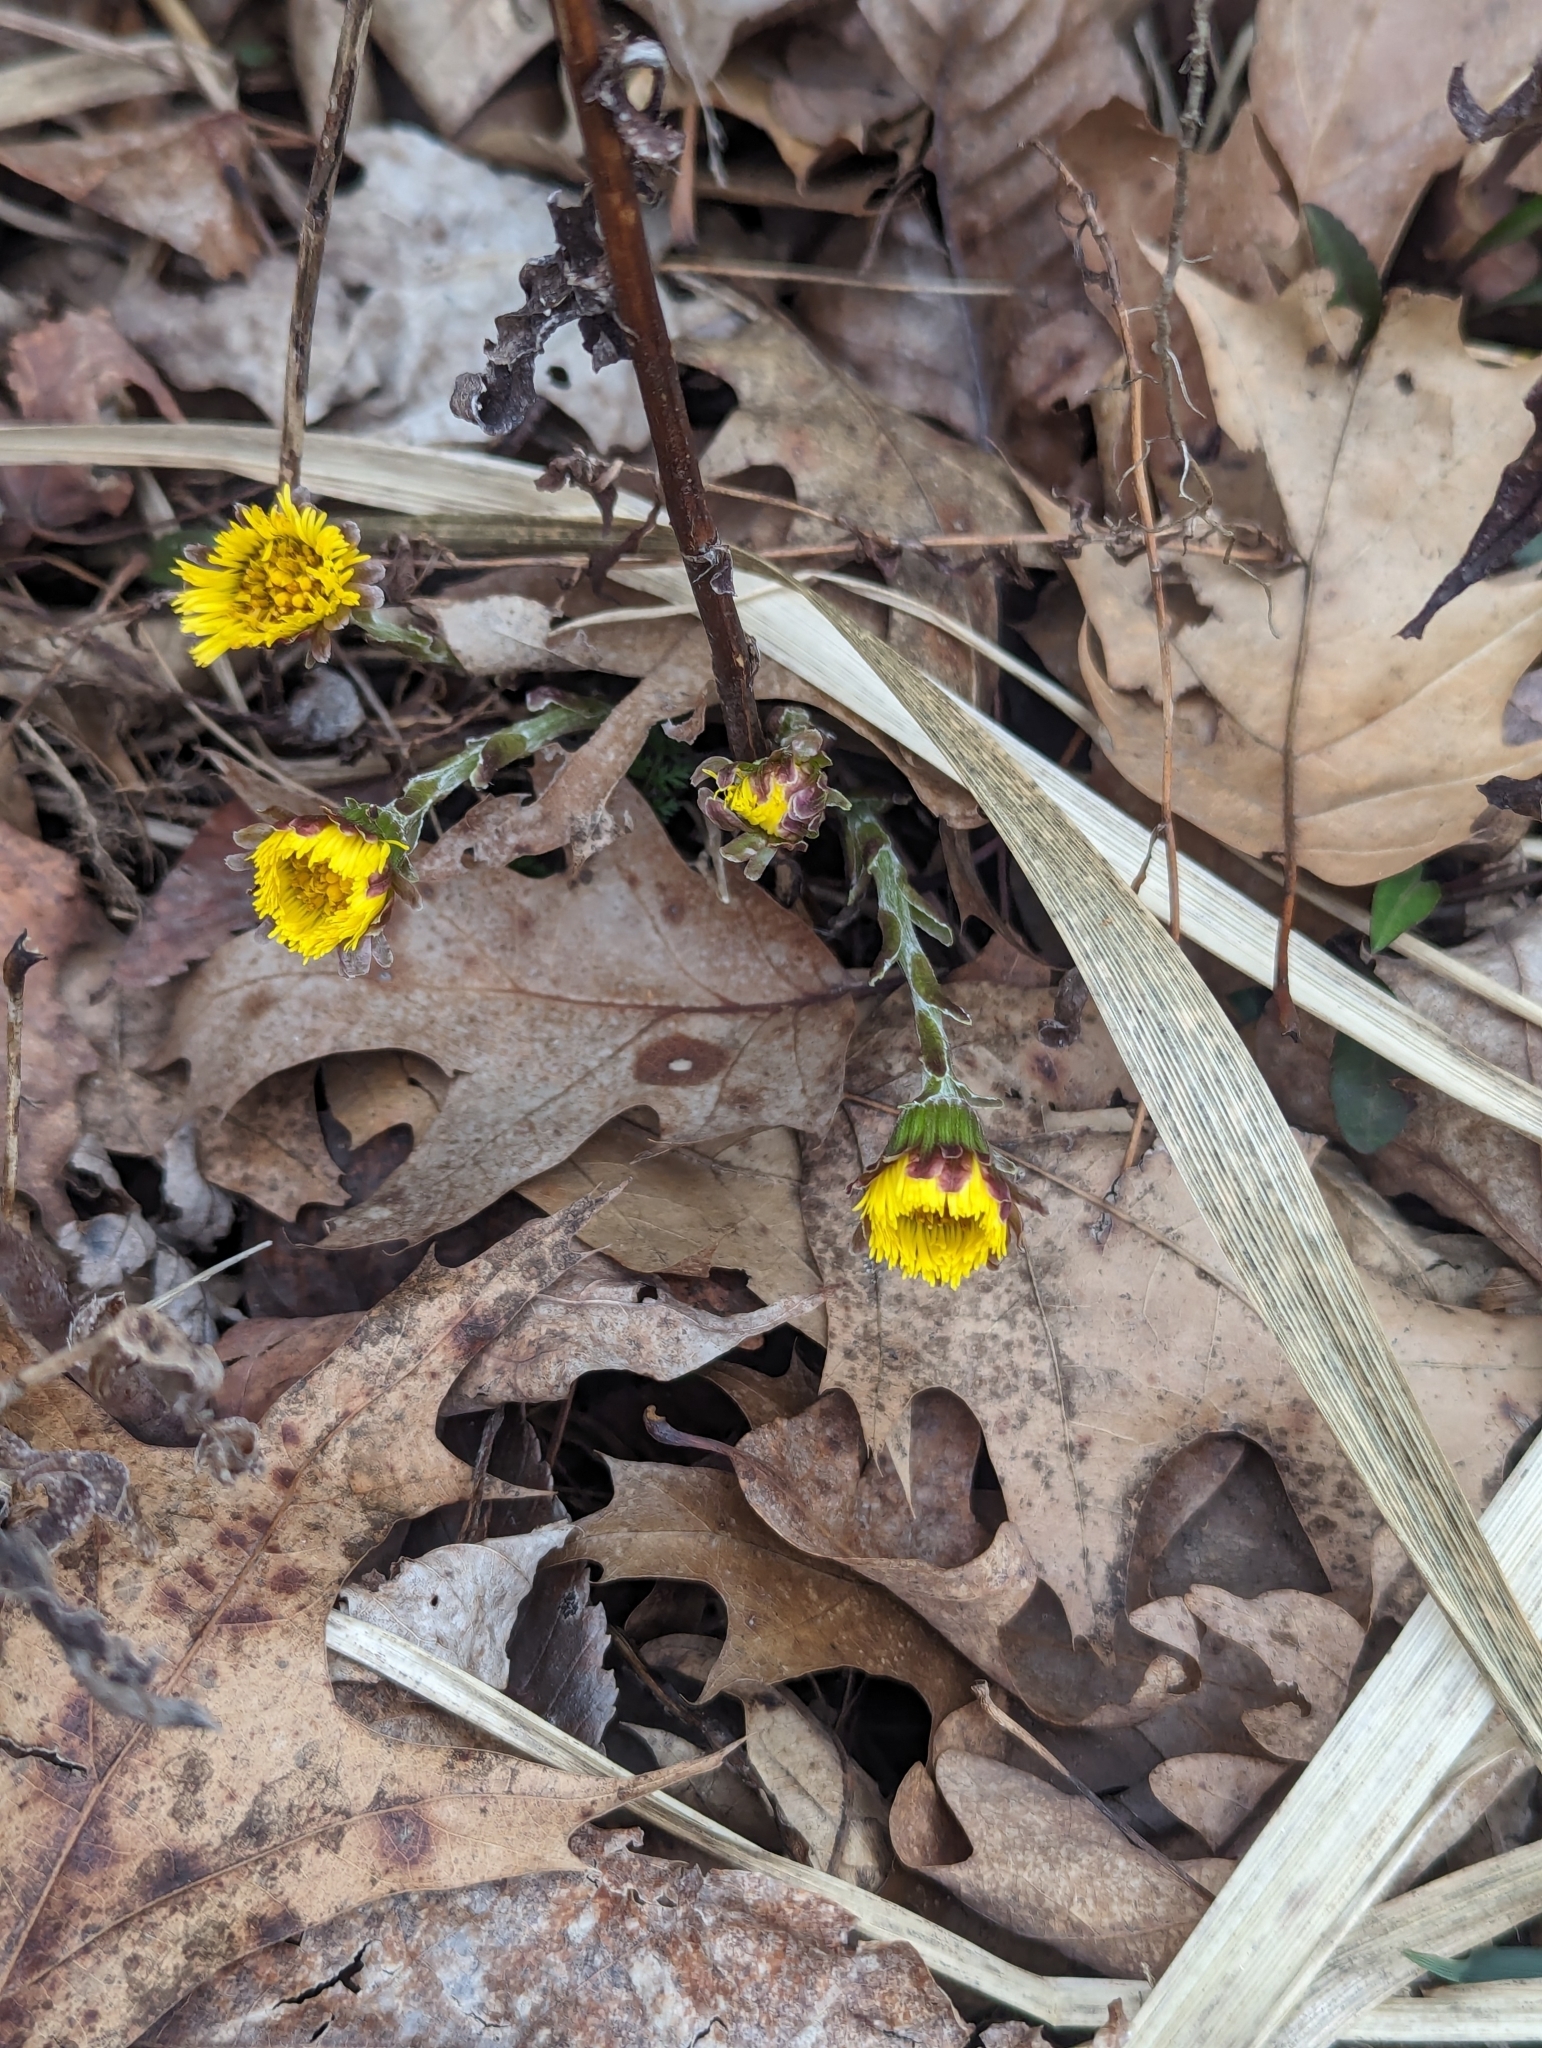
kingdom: Plantae
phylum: Tracheophyta
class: Magnoliopsida
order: Asterales
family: Asteraceae
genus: Tussilago
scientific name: Tussilago farfara
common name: Coltsfoot
